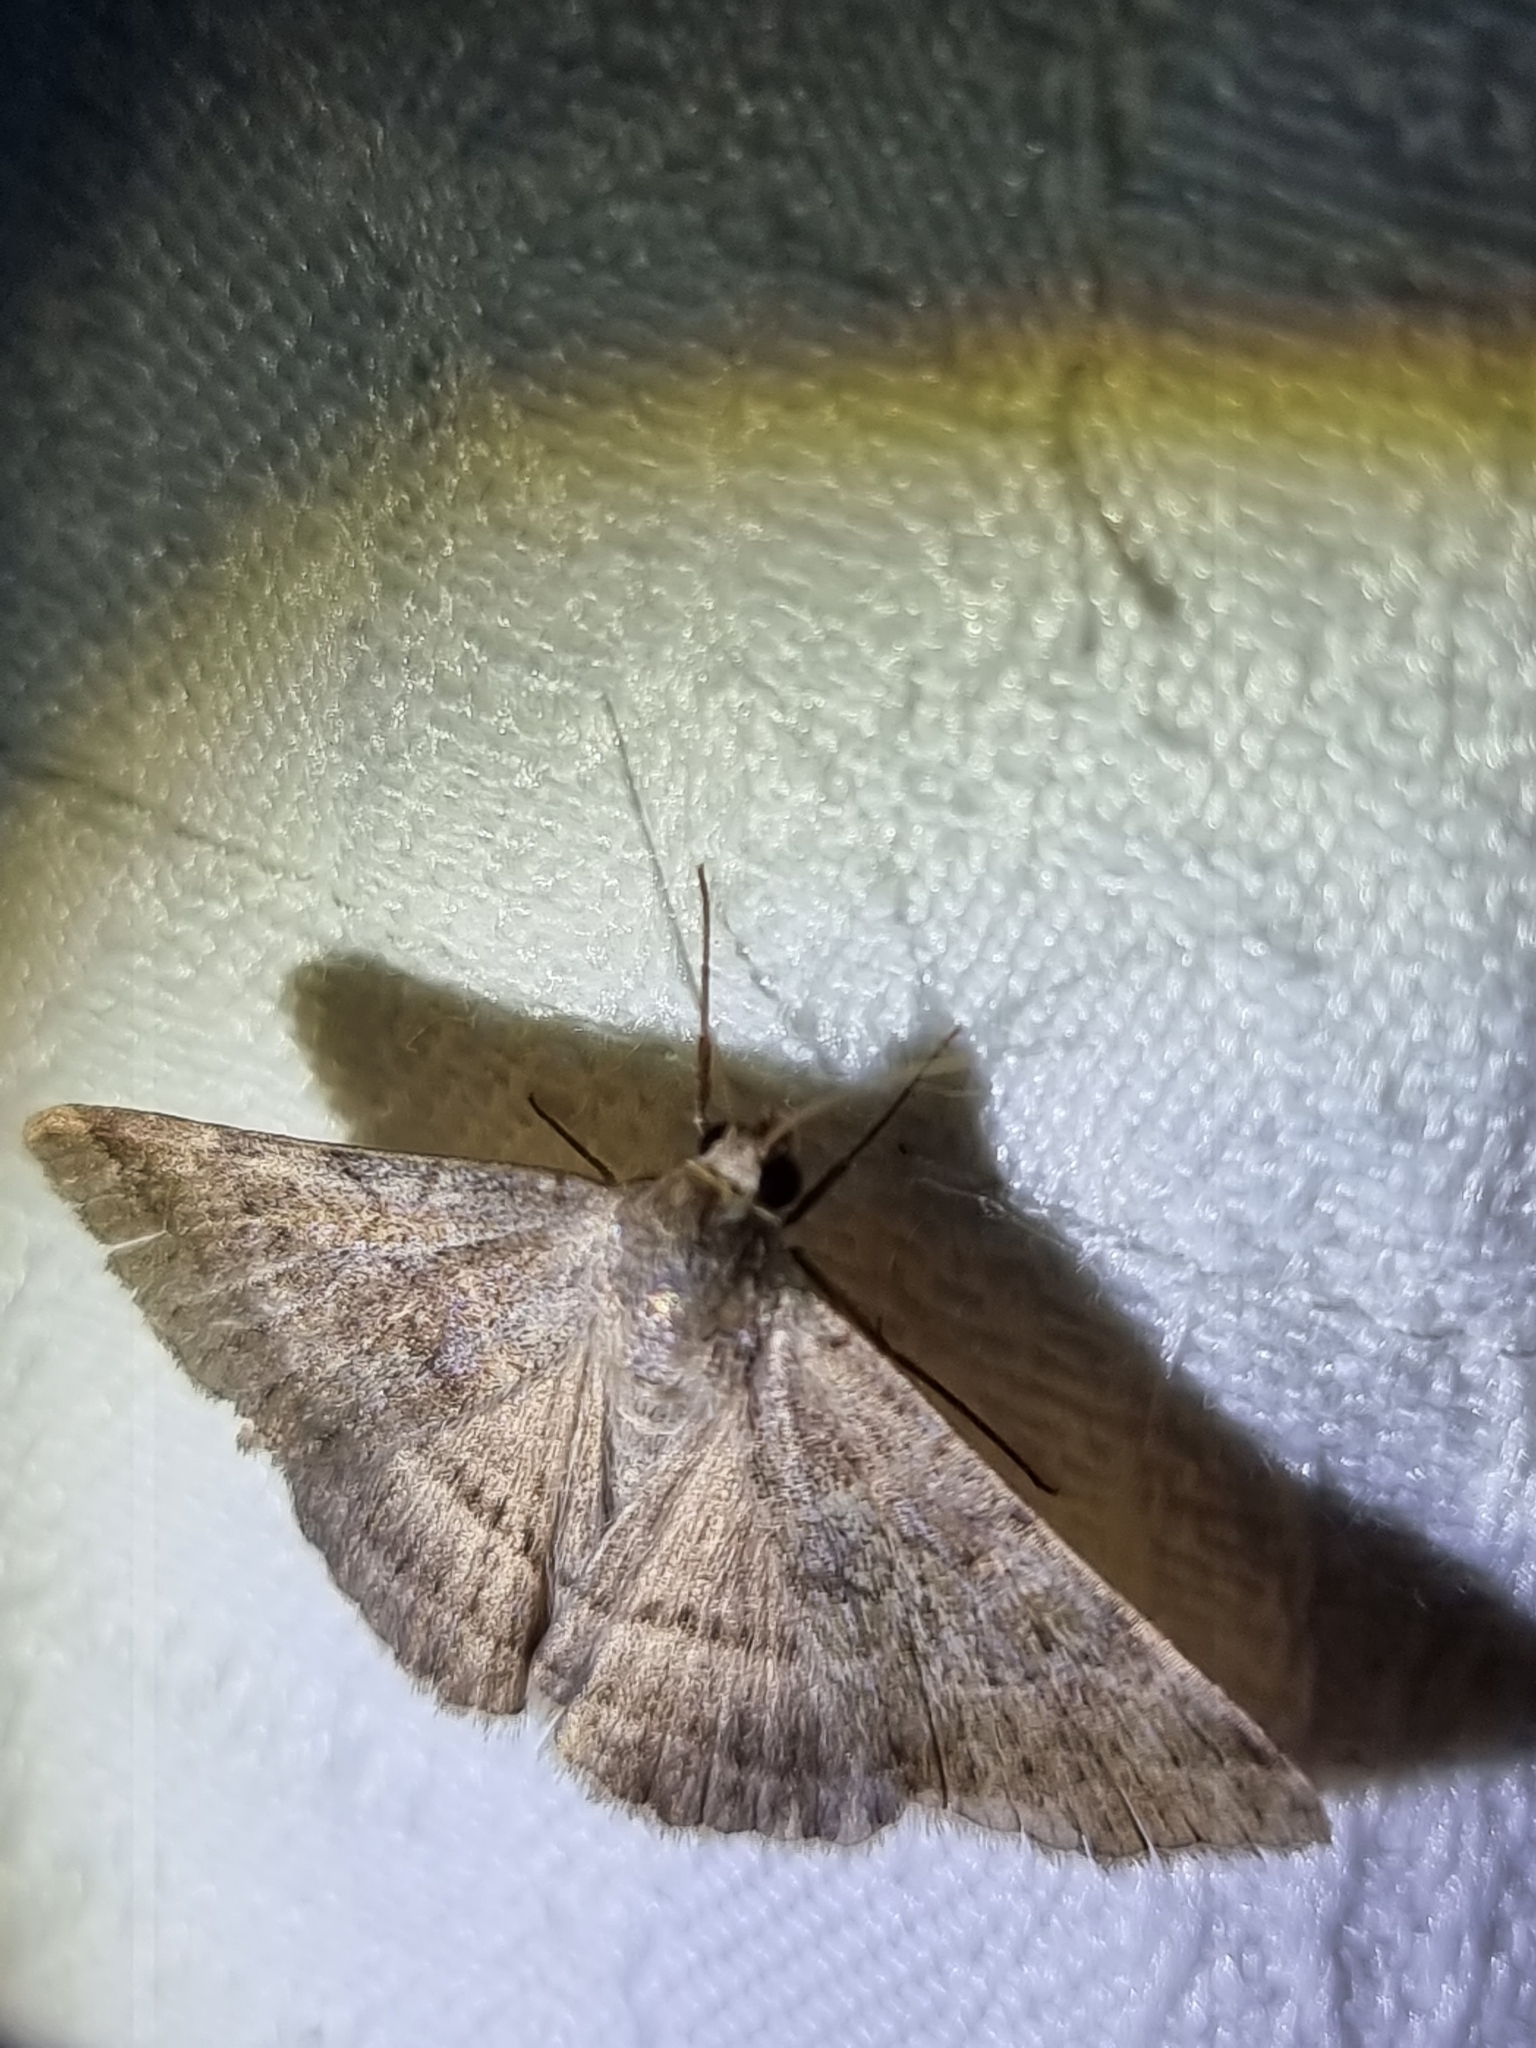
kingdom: Animalia
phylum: Arthropoda
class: Insecta
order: Lepidoptera
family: Erebidae
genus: Mocis
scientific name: Mocis alterna
